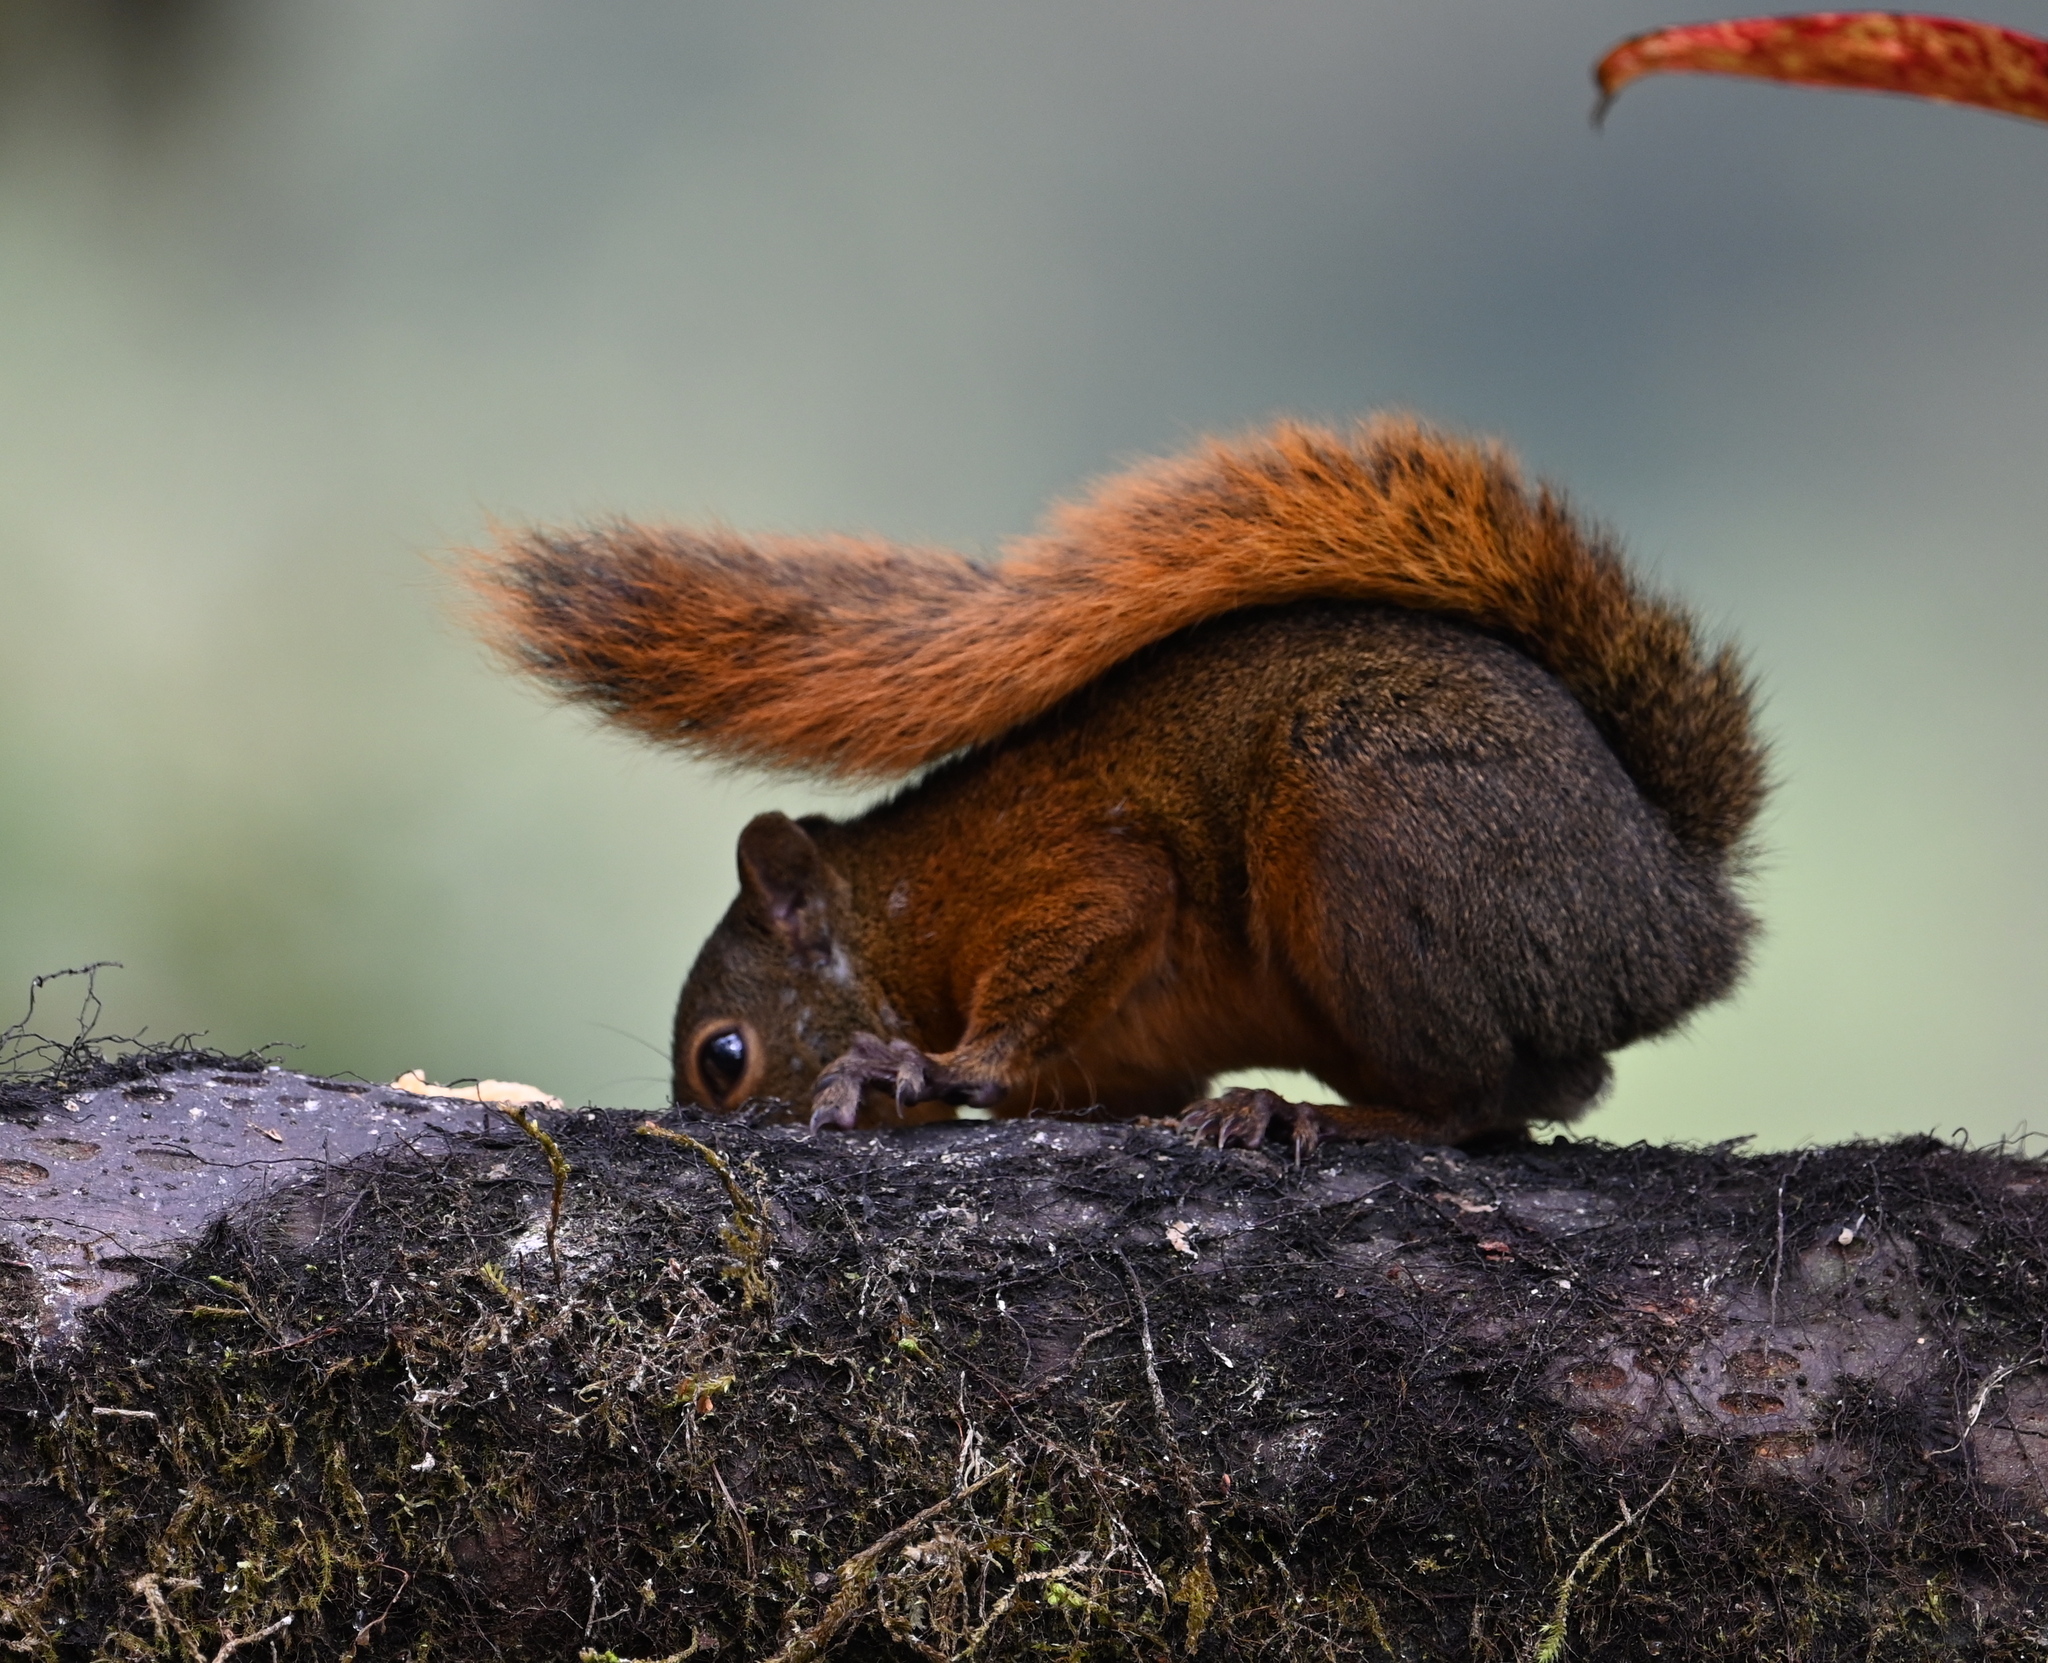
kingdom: Animalia
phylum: Chordata
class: Mammalia
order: Rodentia
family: Sciuridae
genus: Sciurus
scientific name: Sciurus granatensis
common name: Red-tailed squirrel
